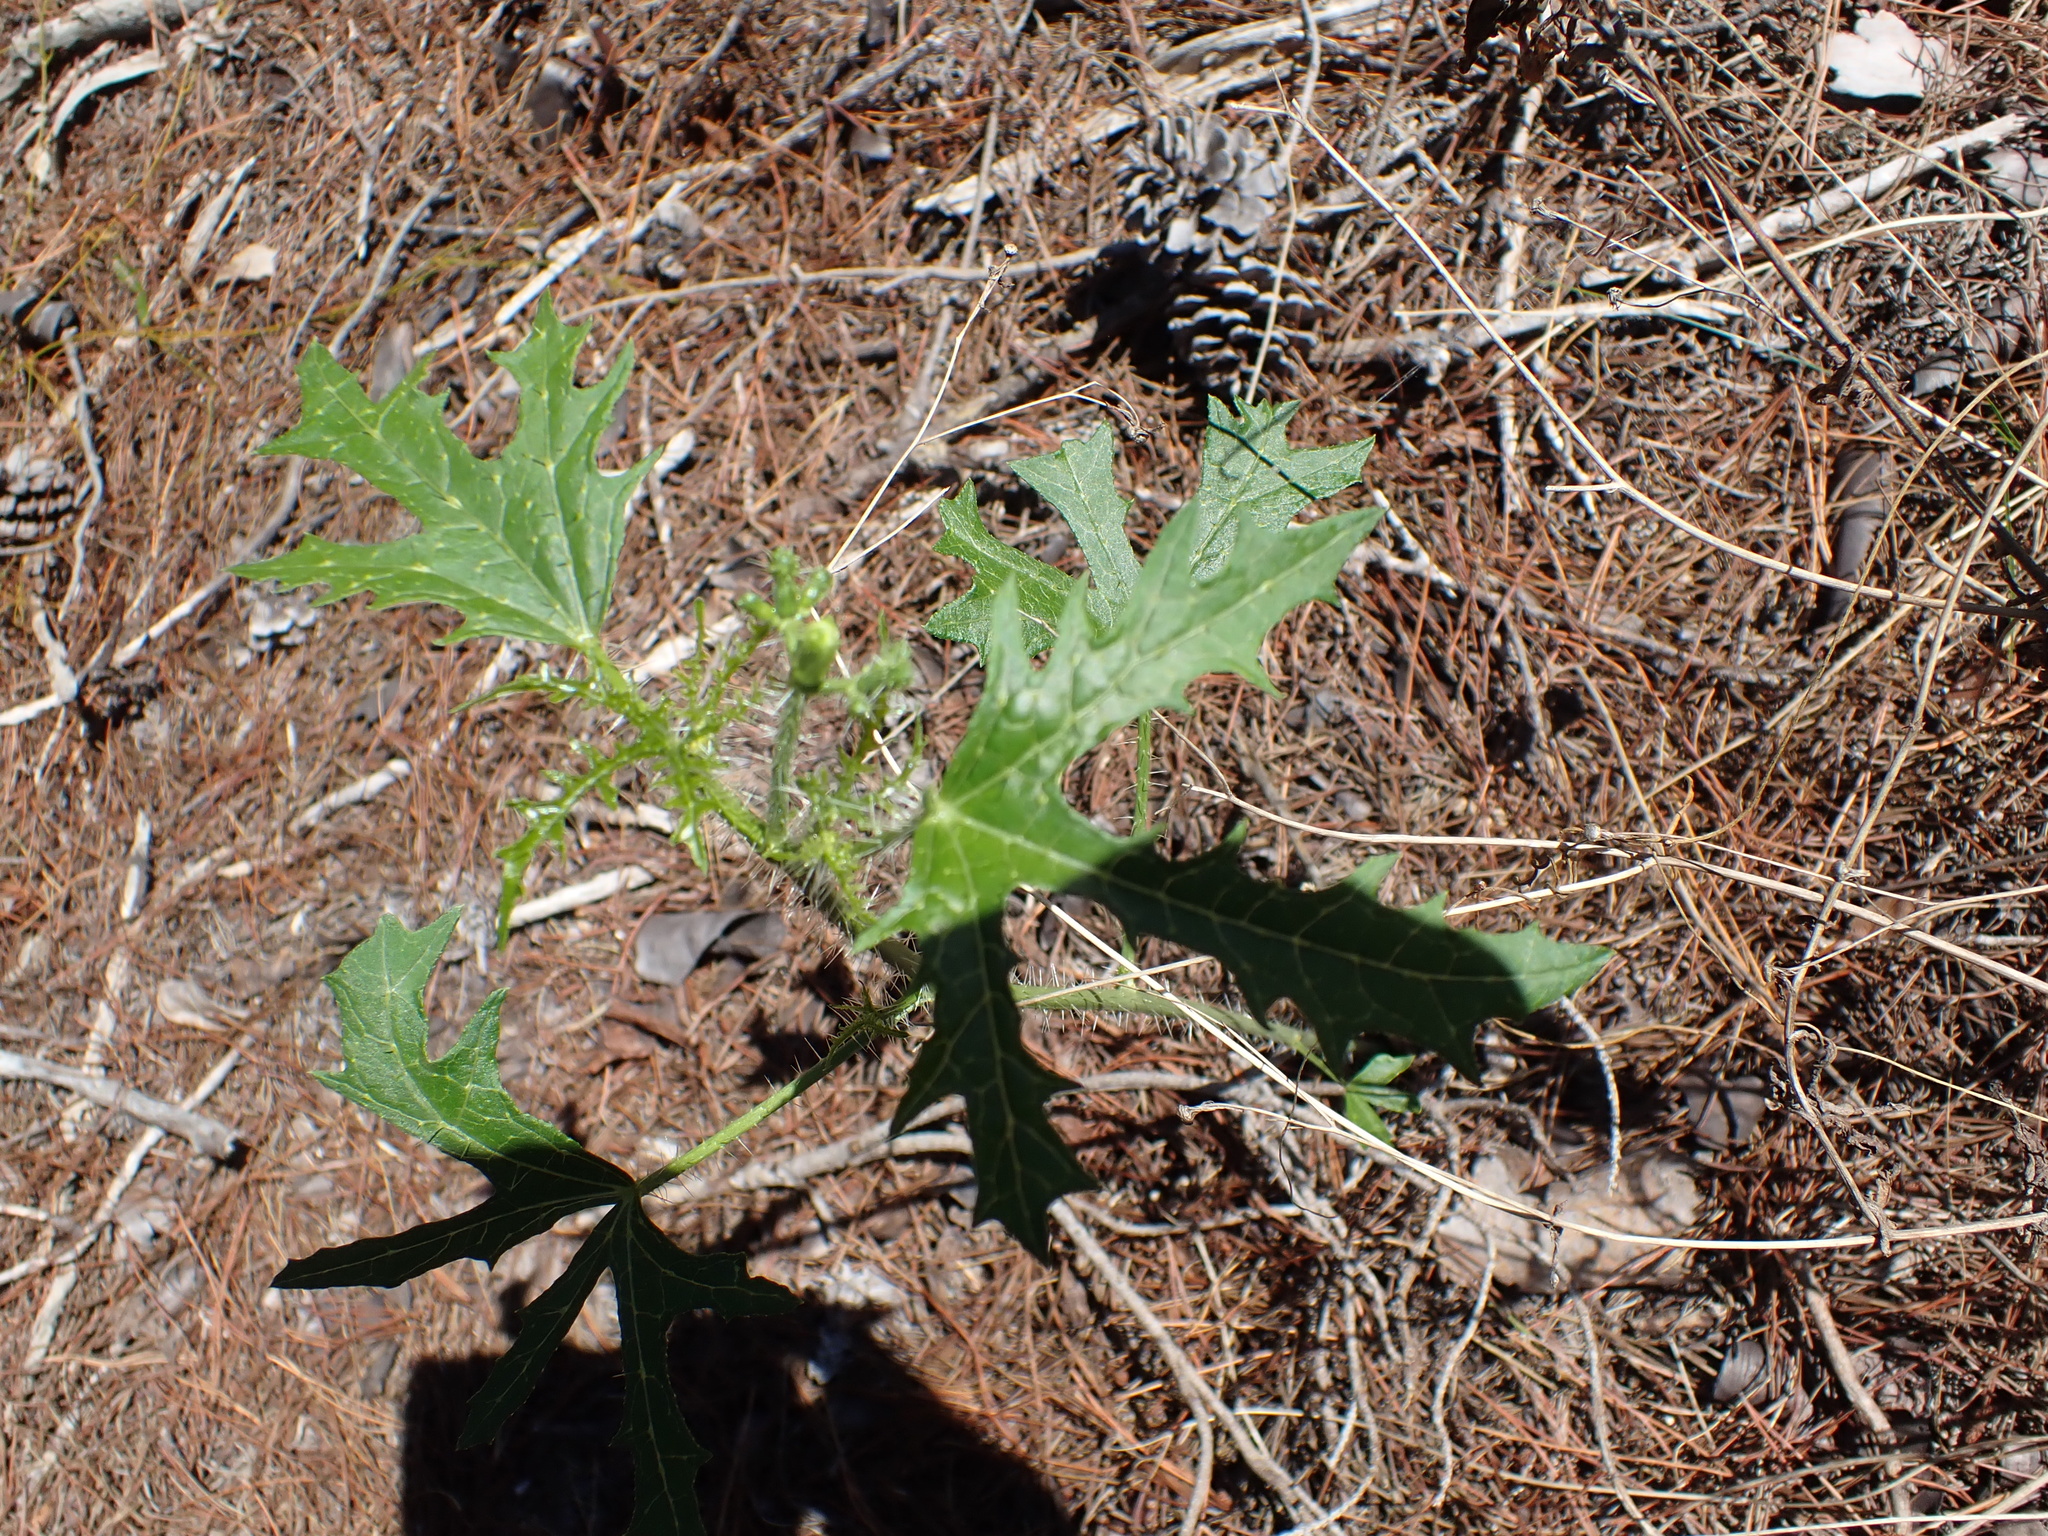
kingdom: Plantae
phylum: Tracheophyta
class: Magnoliopsida
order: Malpighiales
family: Euphorbiaceae
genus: Cnidoscolus
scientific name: Cnidoscolus stimulosus
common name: Bull-nettle
